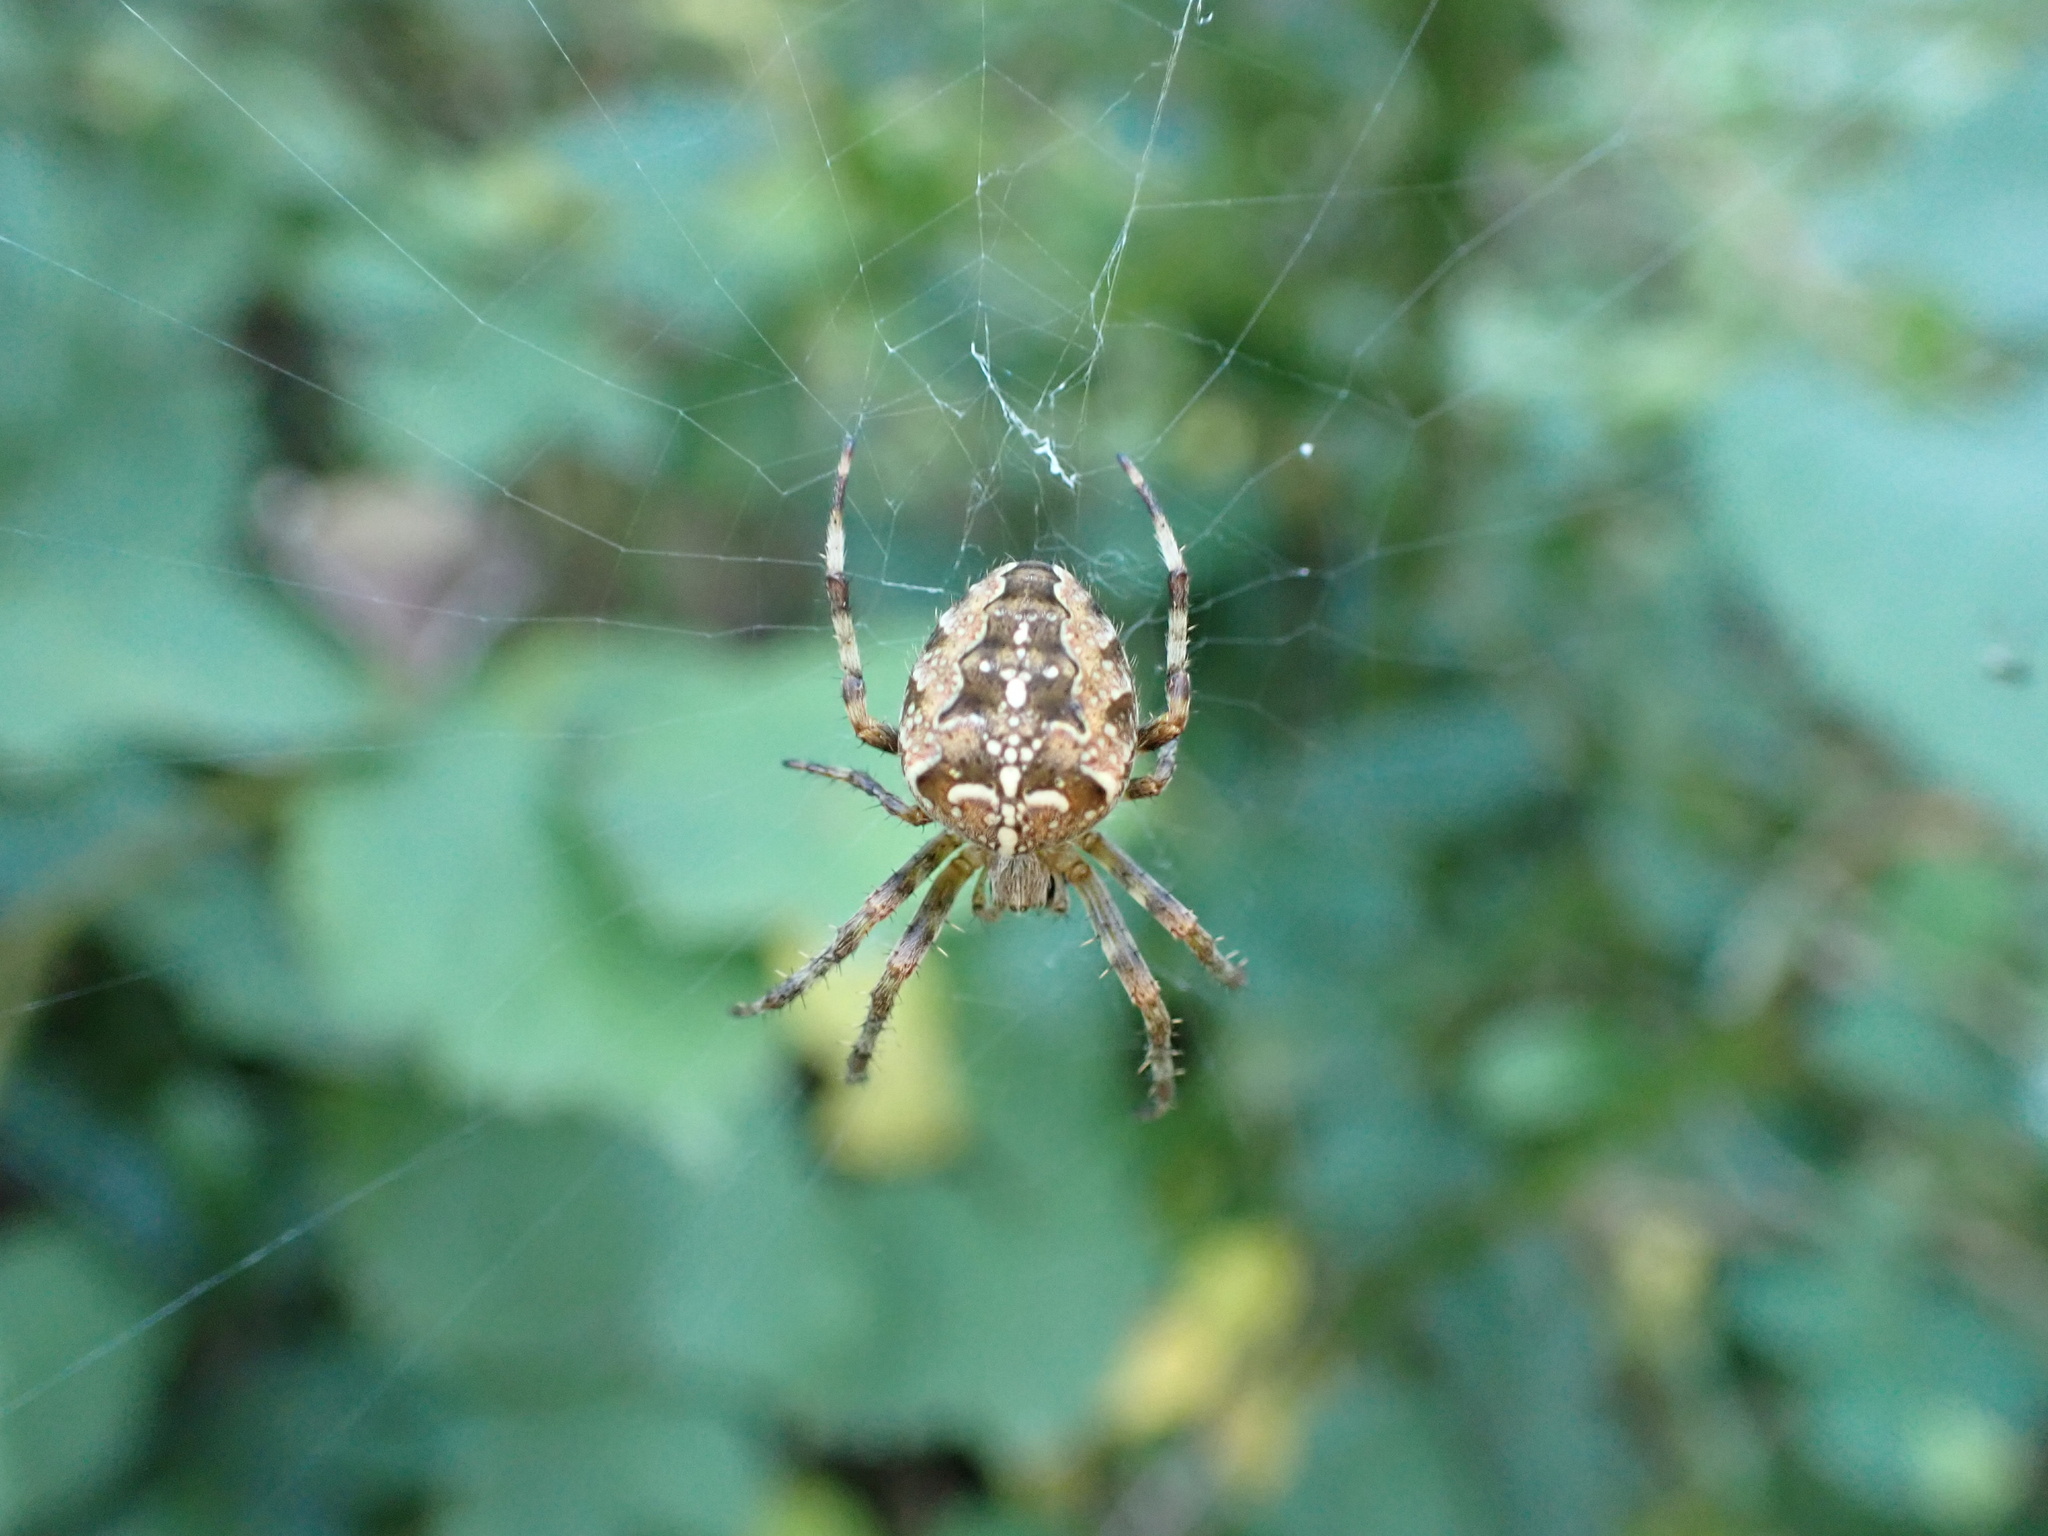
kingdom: Animalia
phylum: Arthropoda
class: Arachnida
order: Araneae
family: Araneidae
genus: Araneus
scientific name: Araneus diadematus
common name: Cross orbweaver
